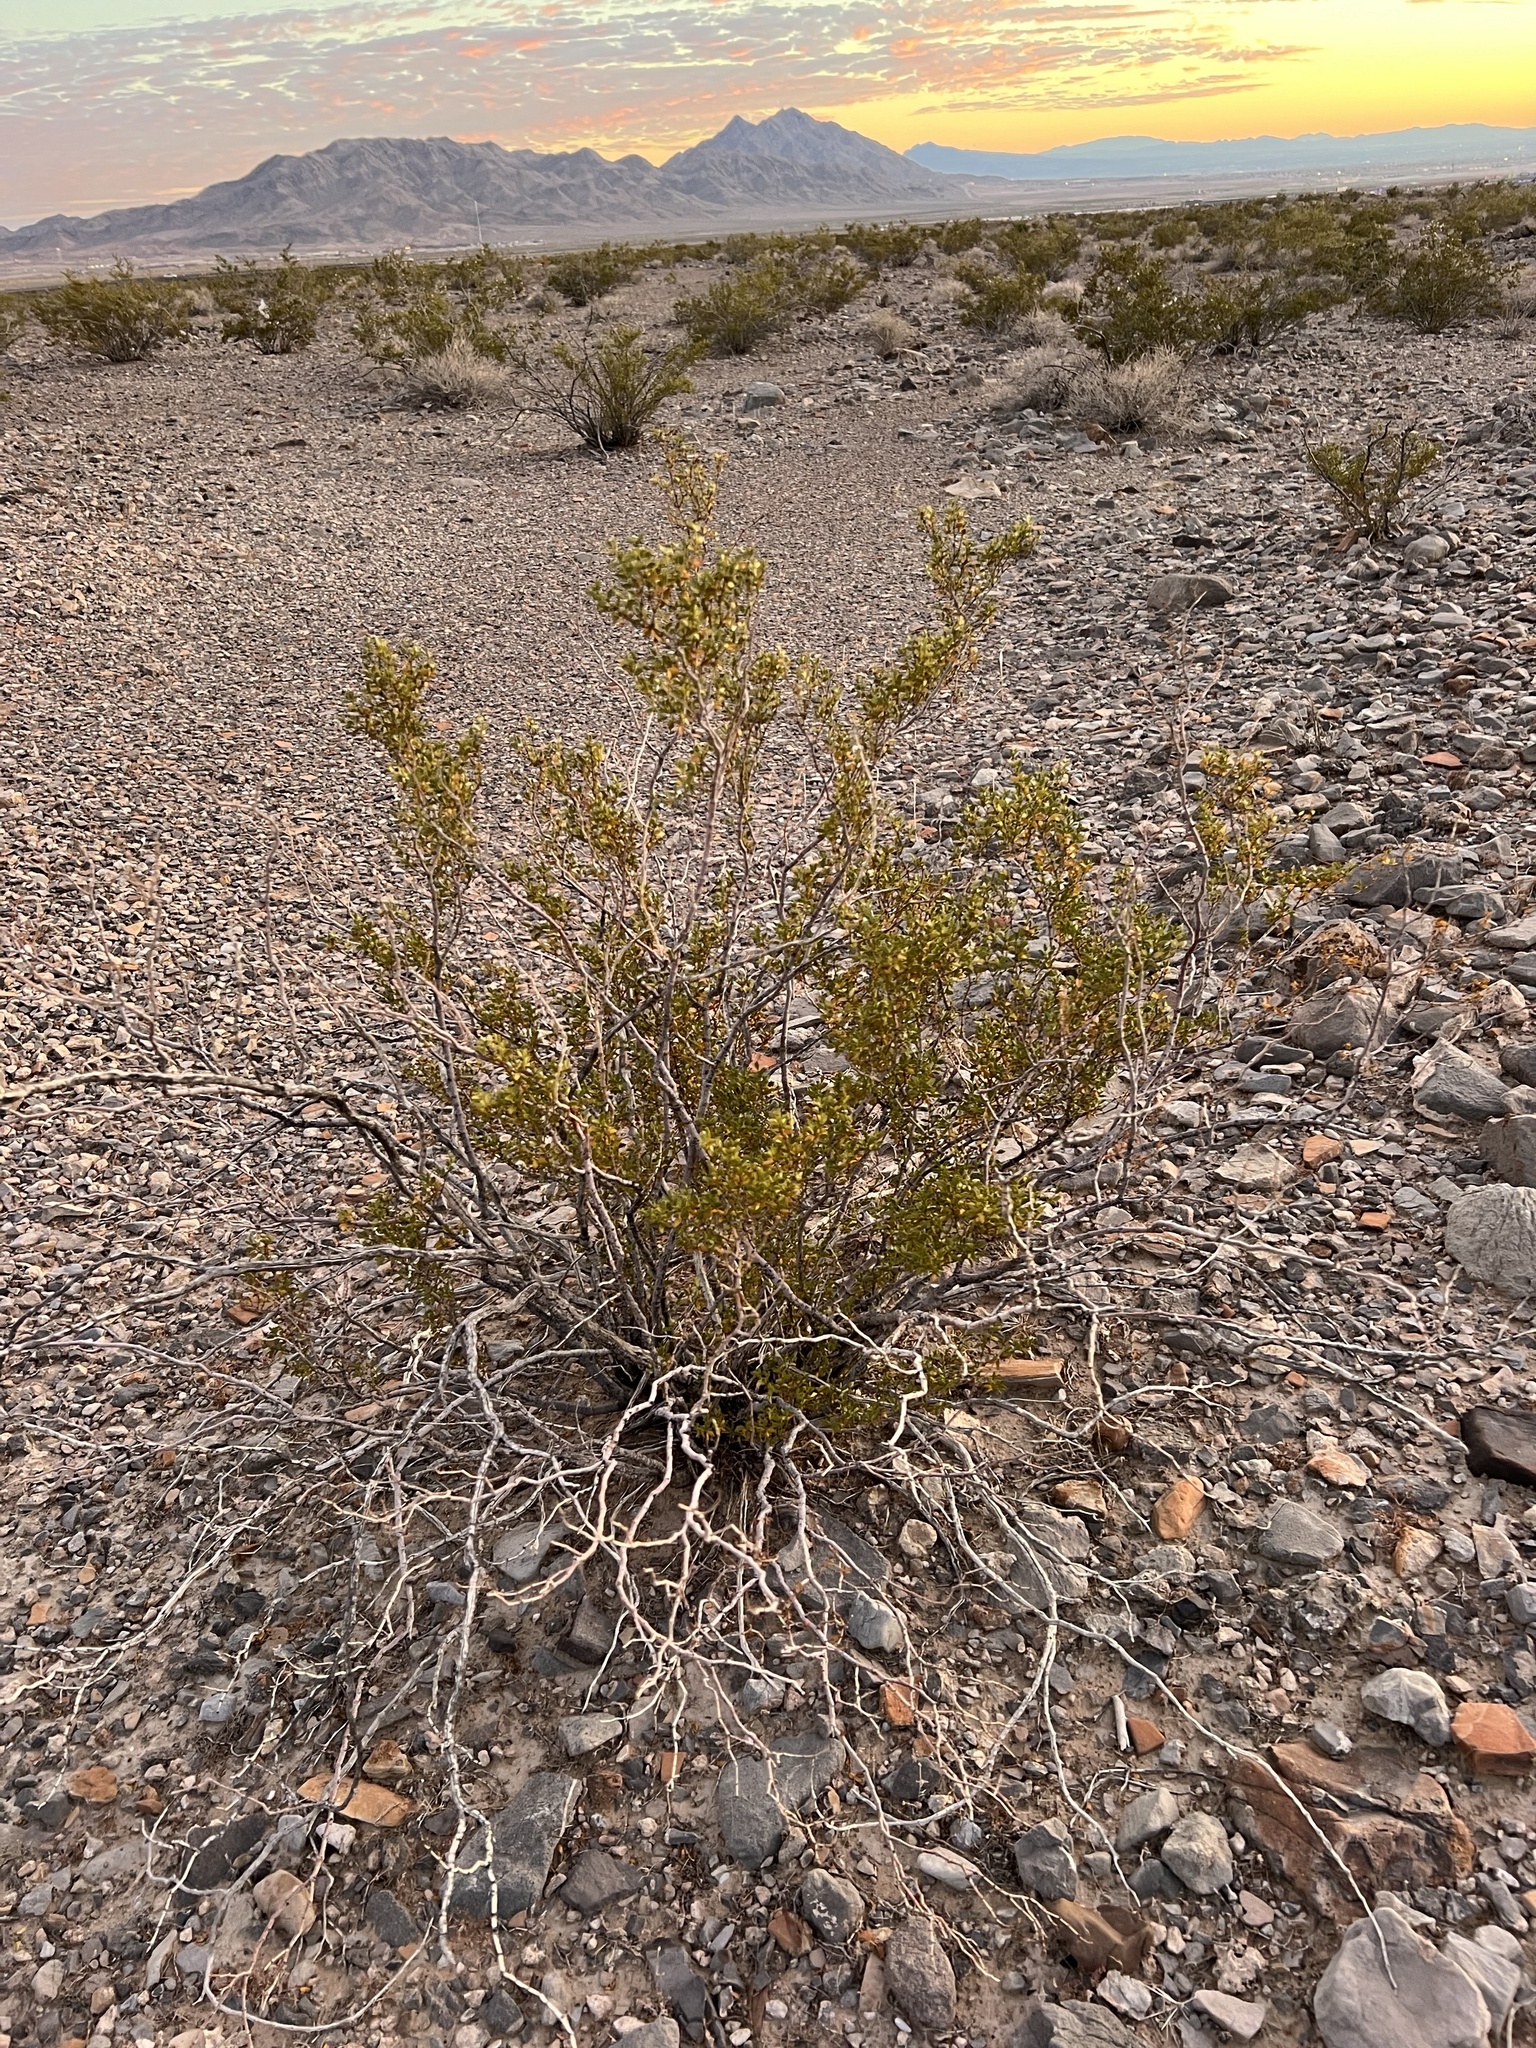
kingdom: Plantae
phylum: Tracheophyta
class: Magnoliopsida
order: Zygophyllales
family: Zygophyllaceae
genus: Larrea
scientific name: Larrea tridentata
